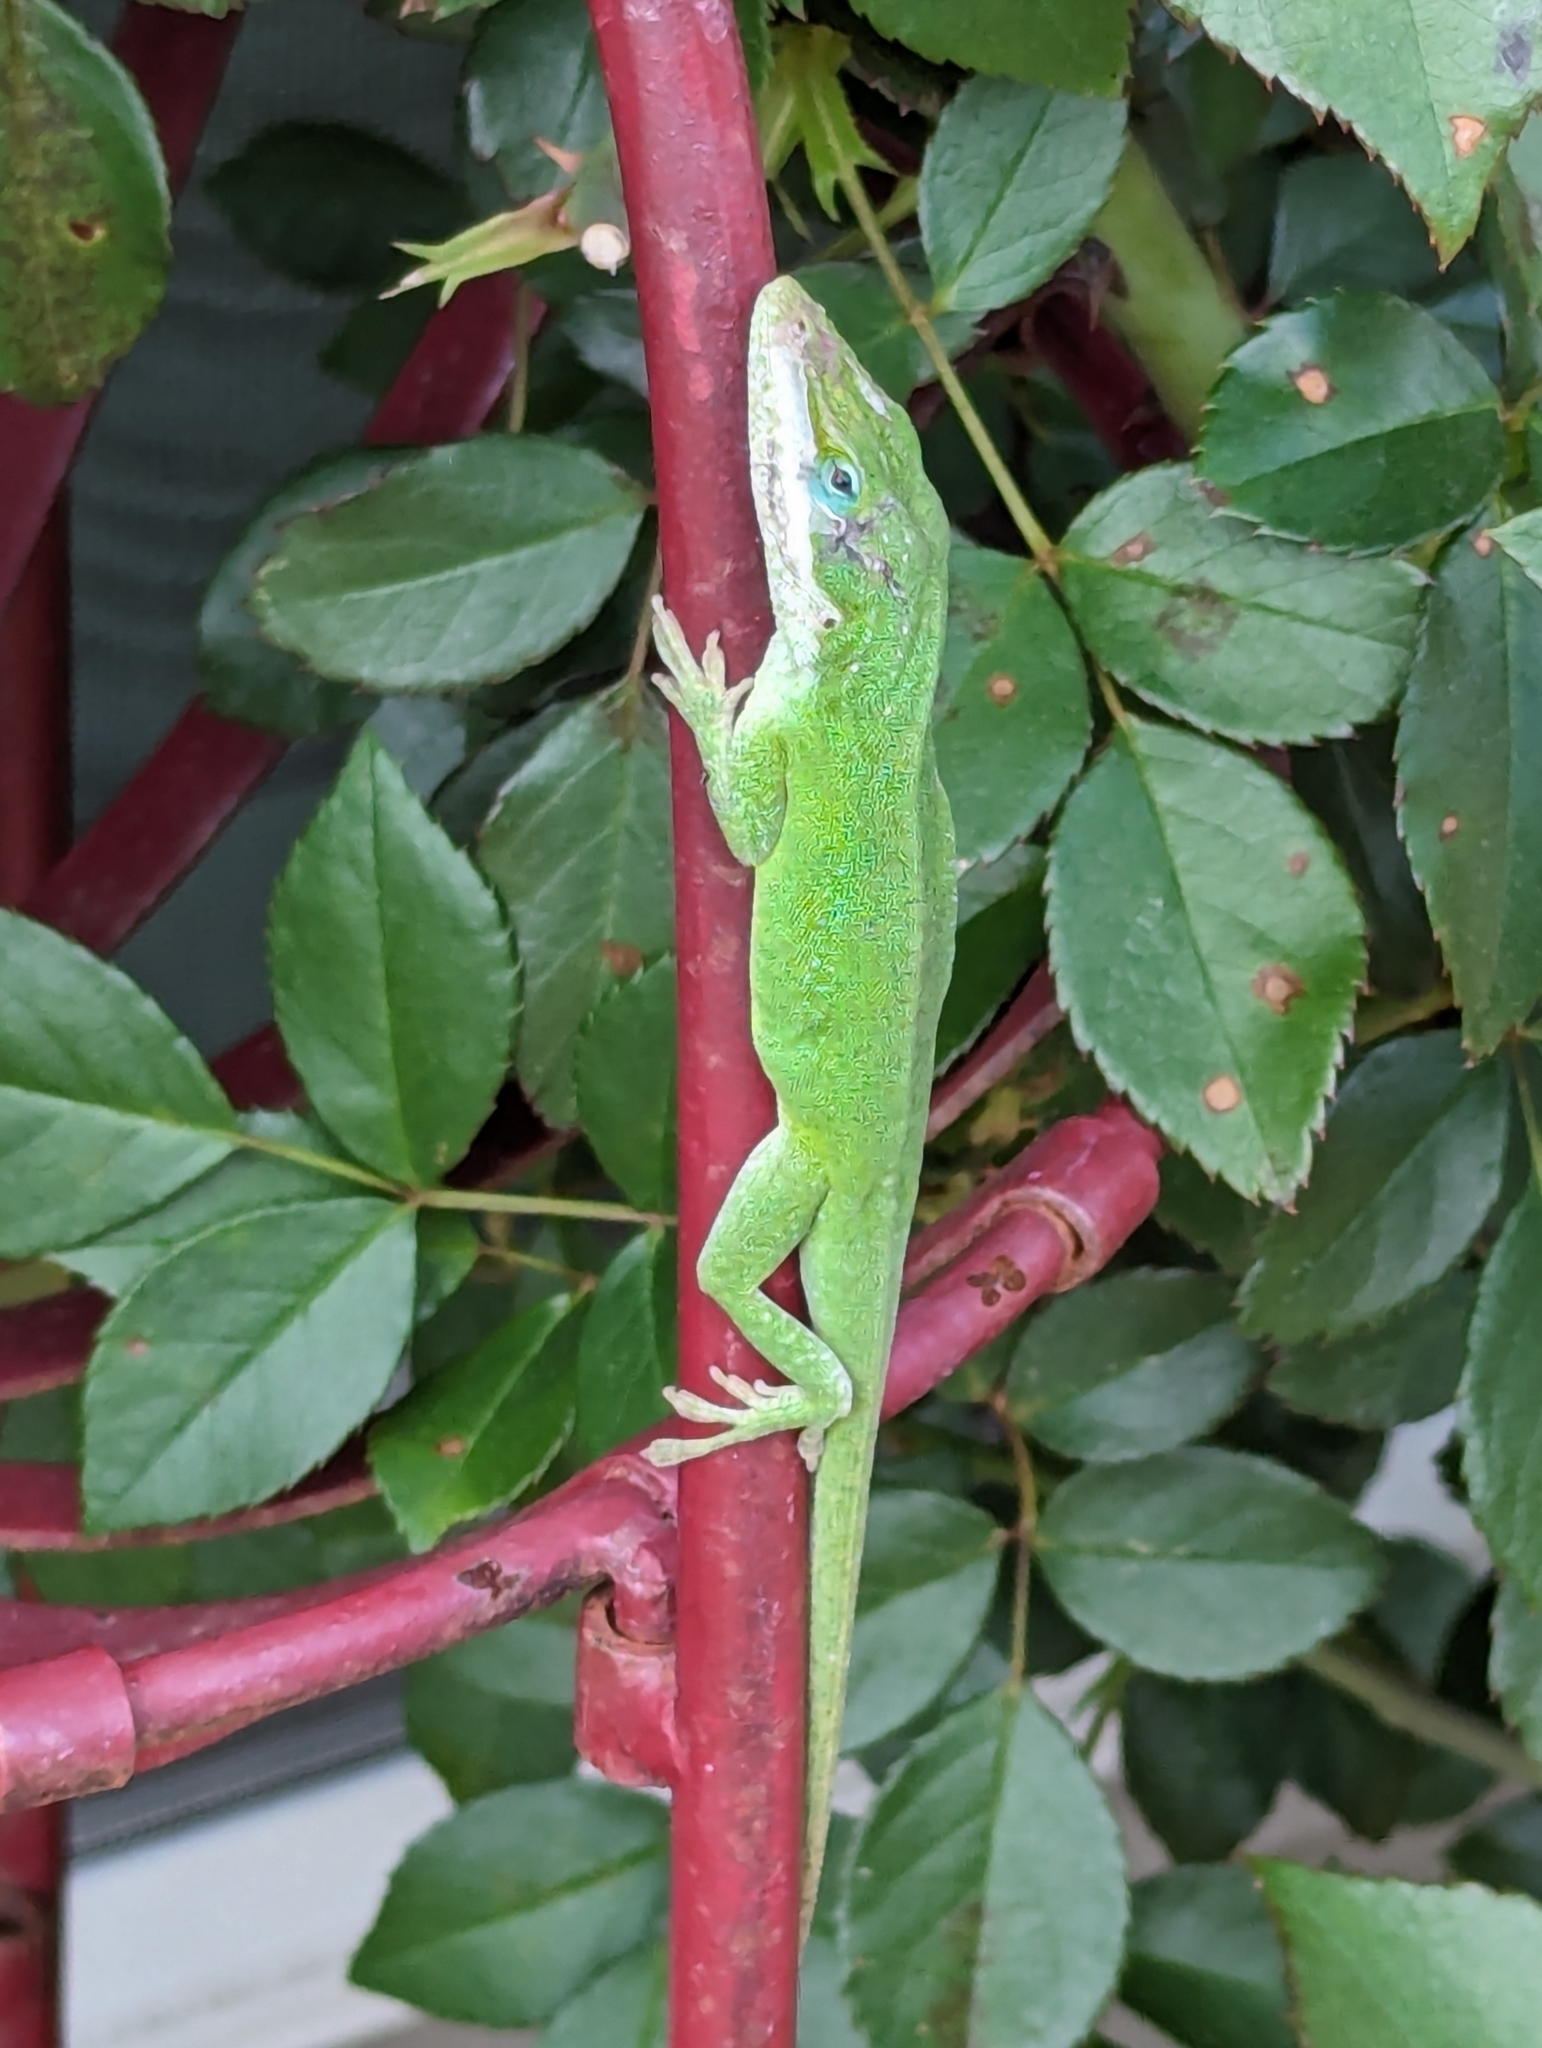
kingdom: Animalia
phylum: Chordata
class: Squamata
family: Dactyloidae
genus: Anolis
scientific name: Anolis carolinensis
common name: Green anole
